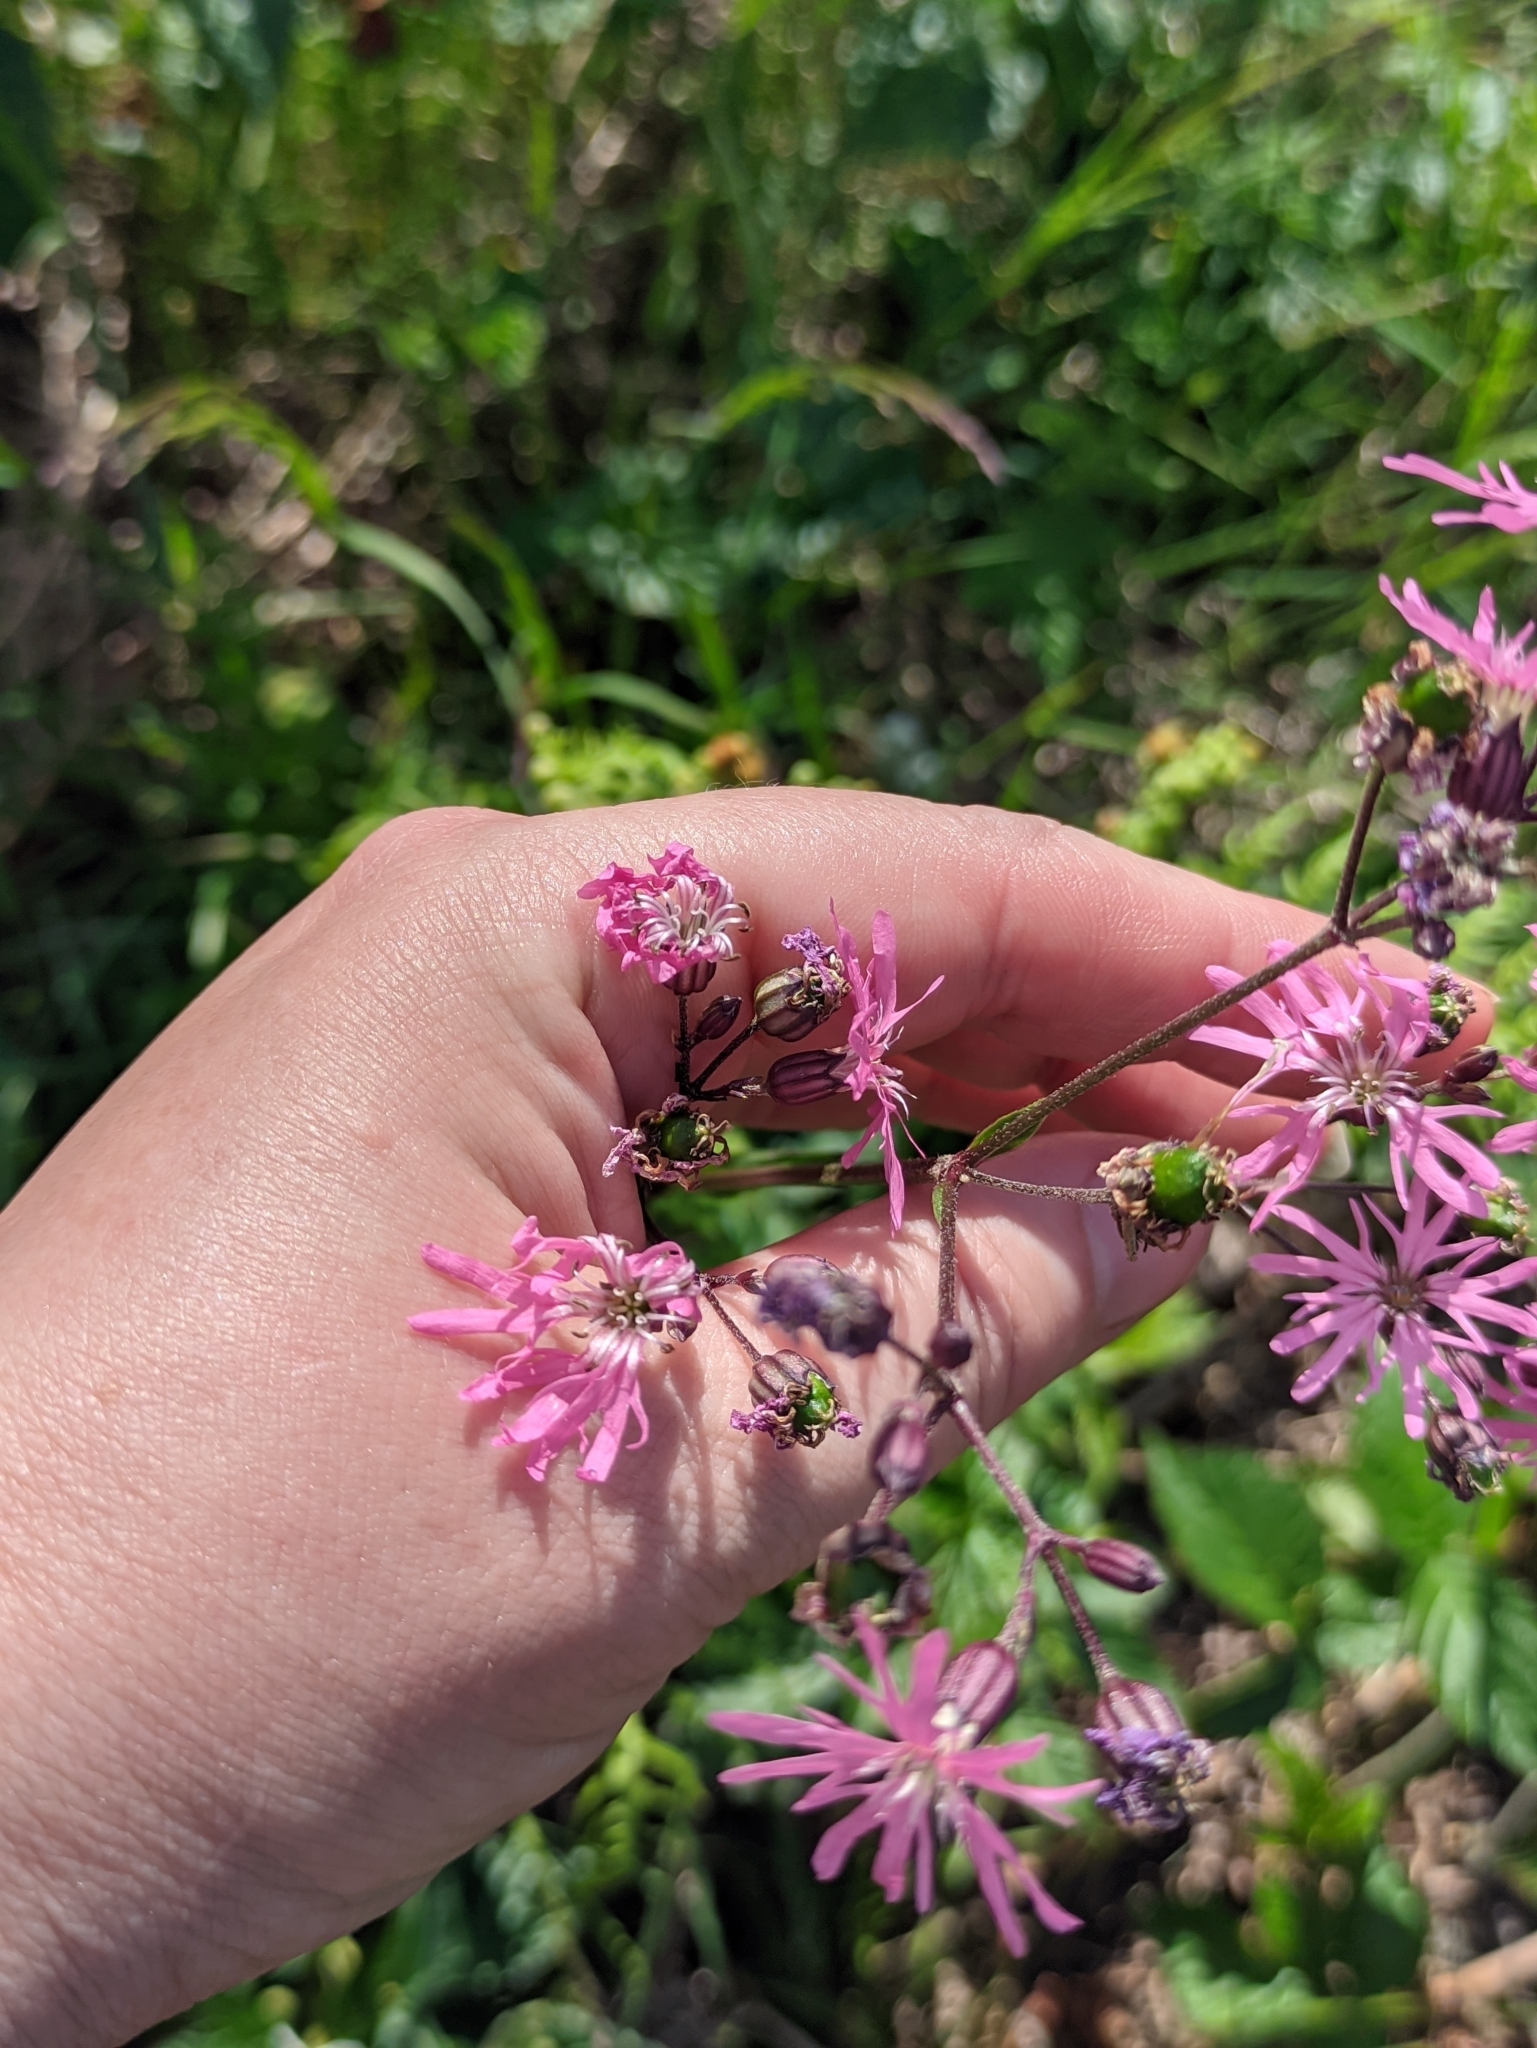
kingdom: Plantae
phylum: Tracheophyta
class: Magnoliopsida
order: Caryophyllales
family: Caryophyllaceae
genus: Silene
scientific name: Silene flos-cuculi
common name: Ragged-robin
